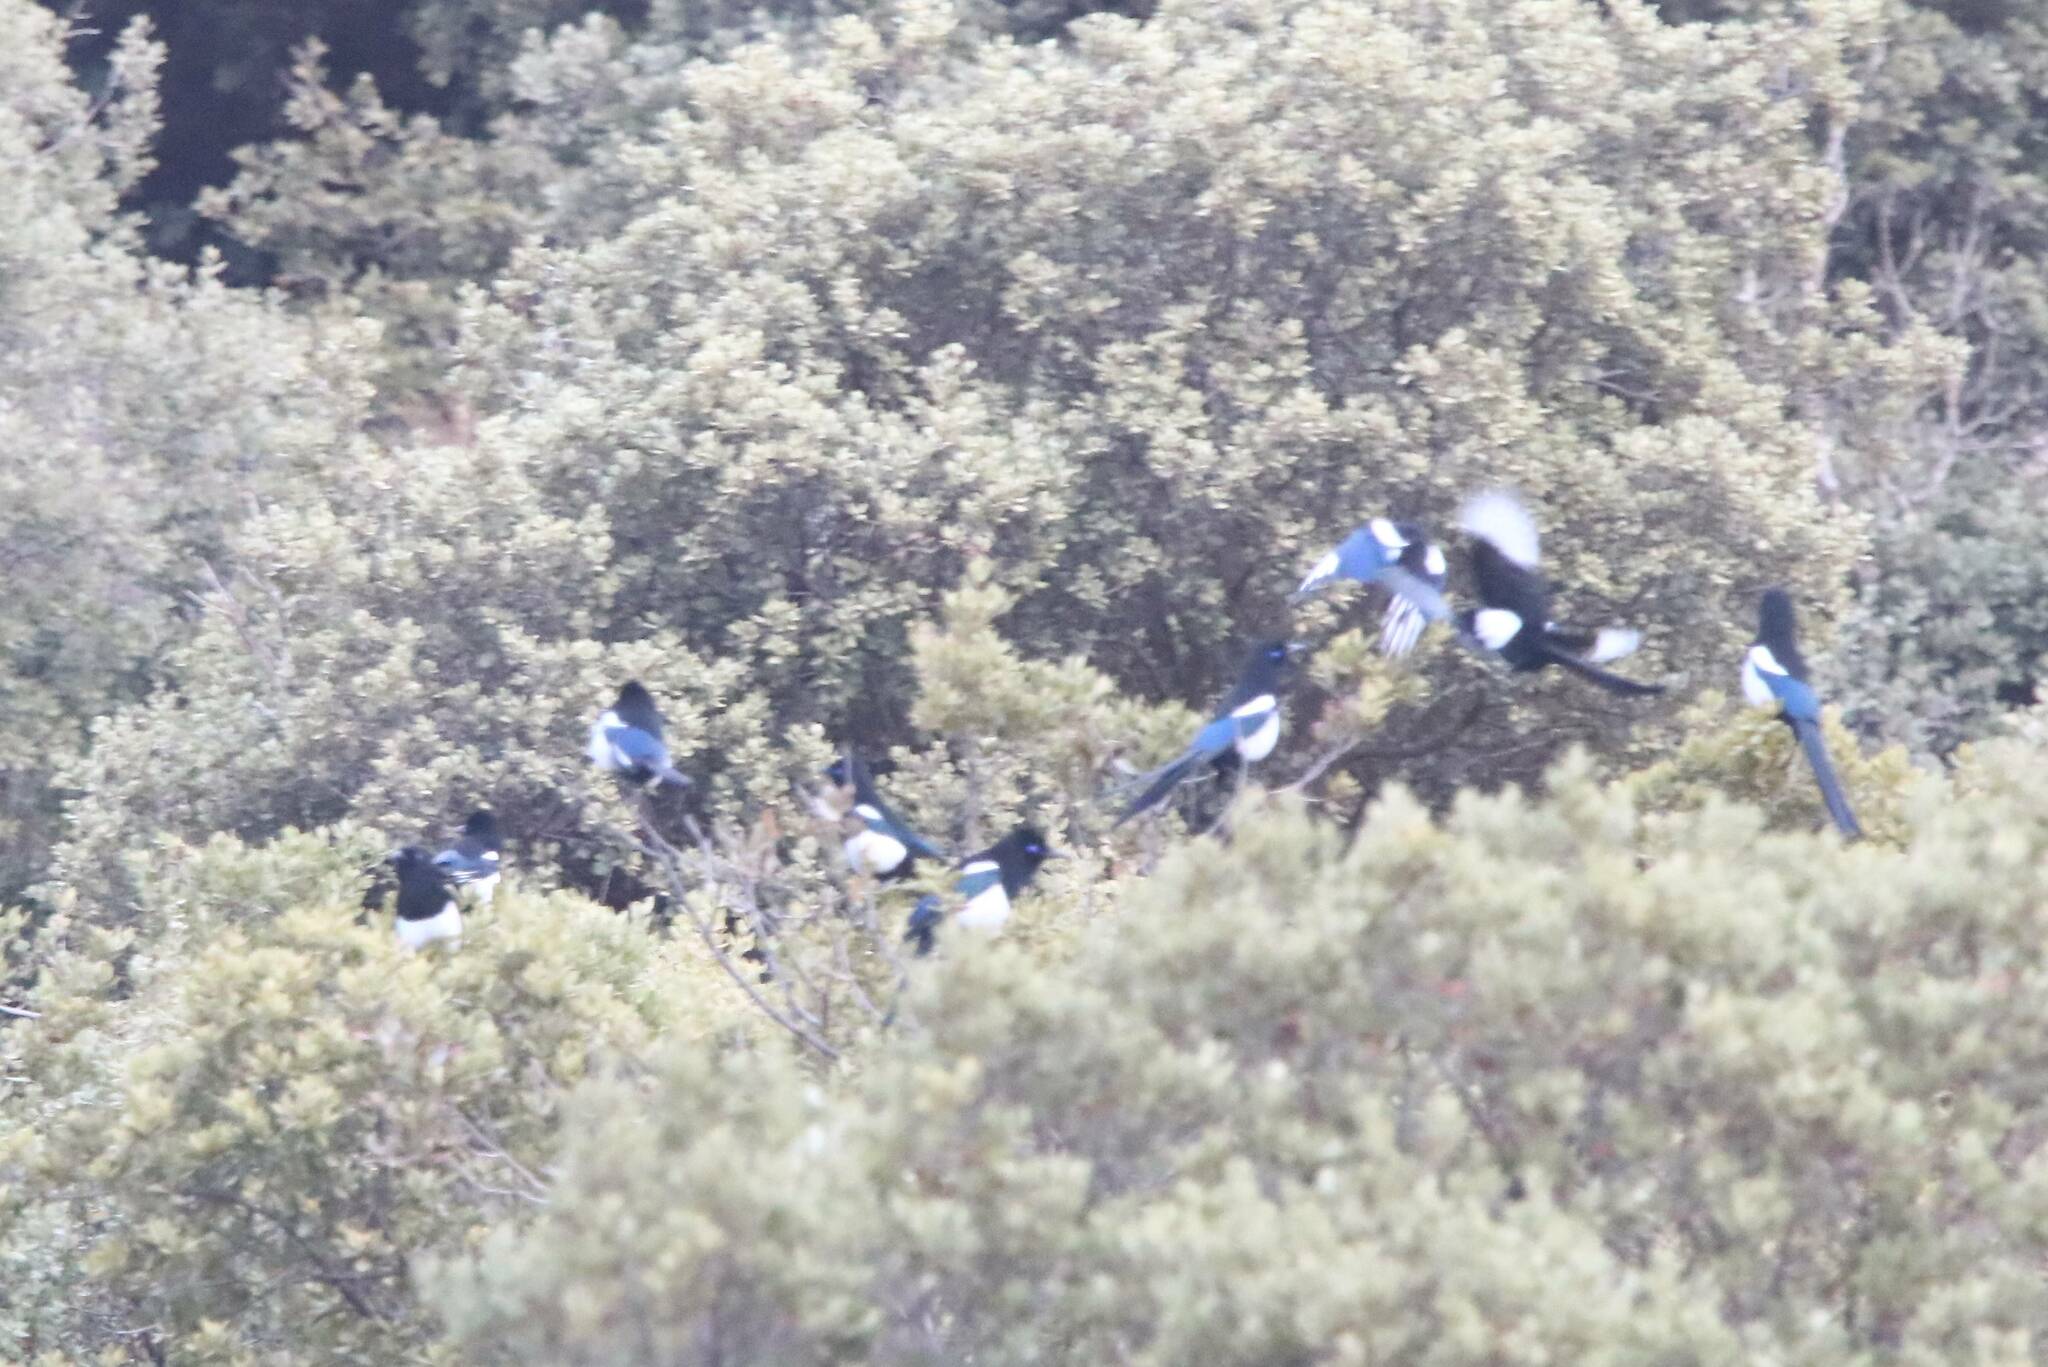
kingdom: Animalia
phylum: Chordata
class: Aves
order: Passeriformes
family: Corvidae
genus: Pica
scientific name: Pica mauritanica
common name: Maghreb magpie
